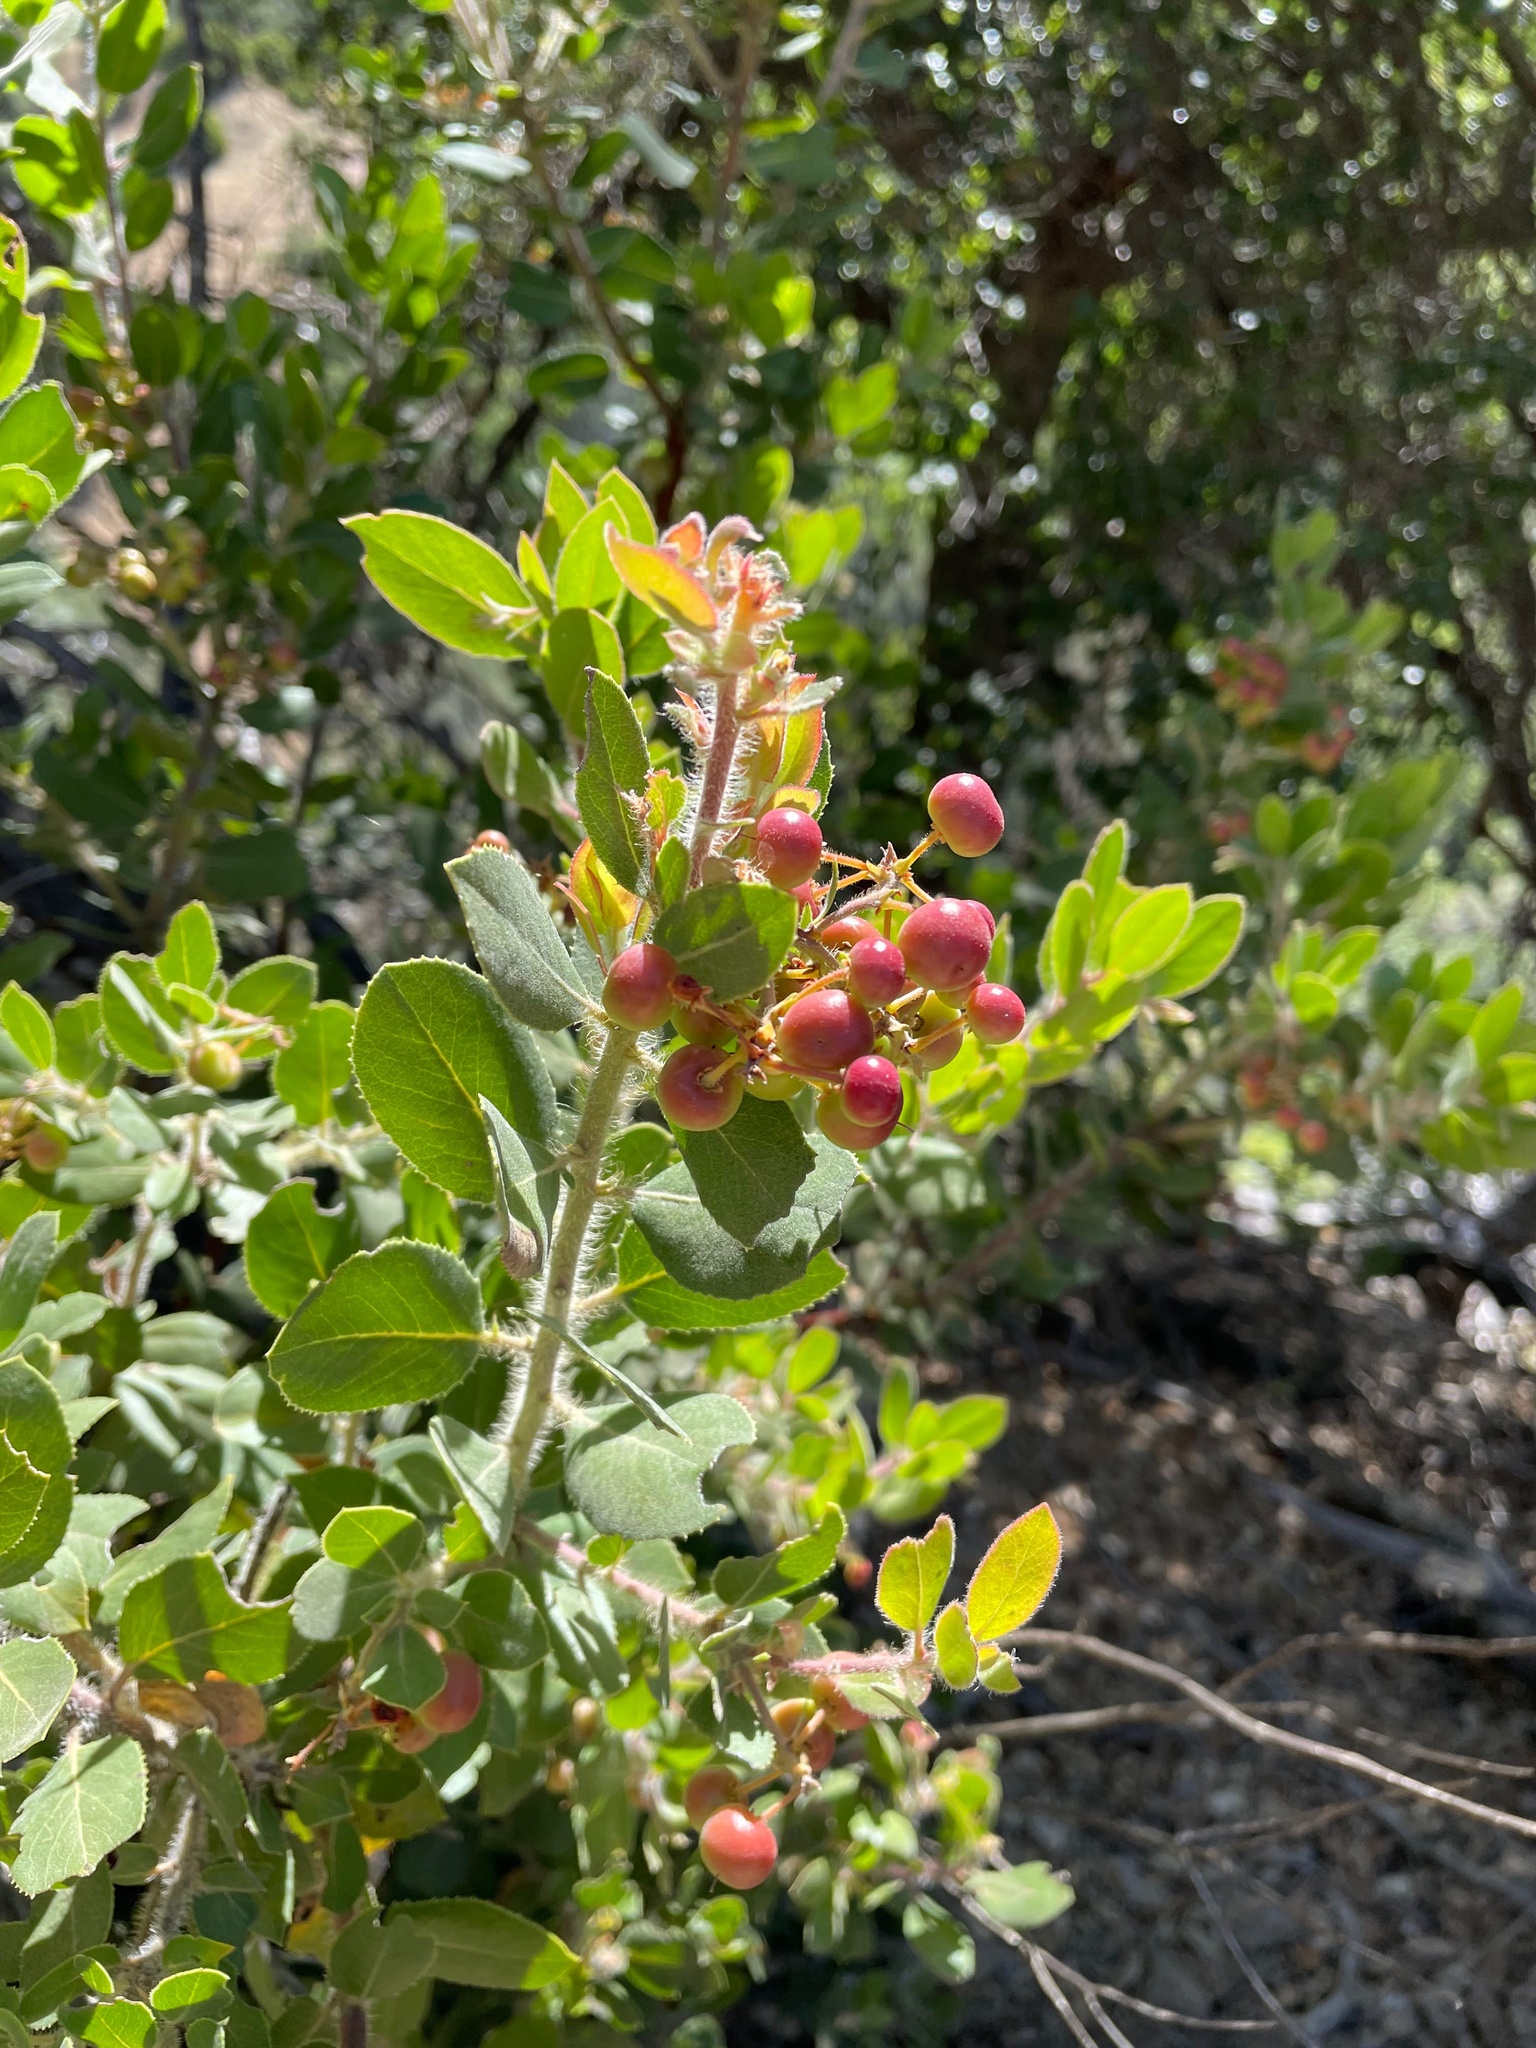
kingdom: Plantae
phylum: Tracheophyta
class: Magnoliopsida
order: Ericales
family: Ericaceae
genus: Arctostaphylos
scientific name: Arctostaphylos crustacea
